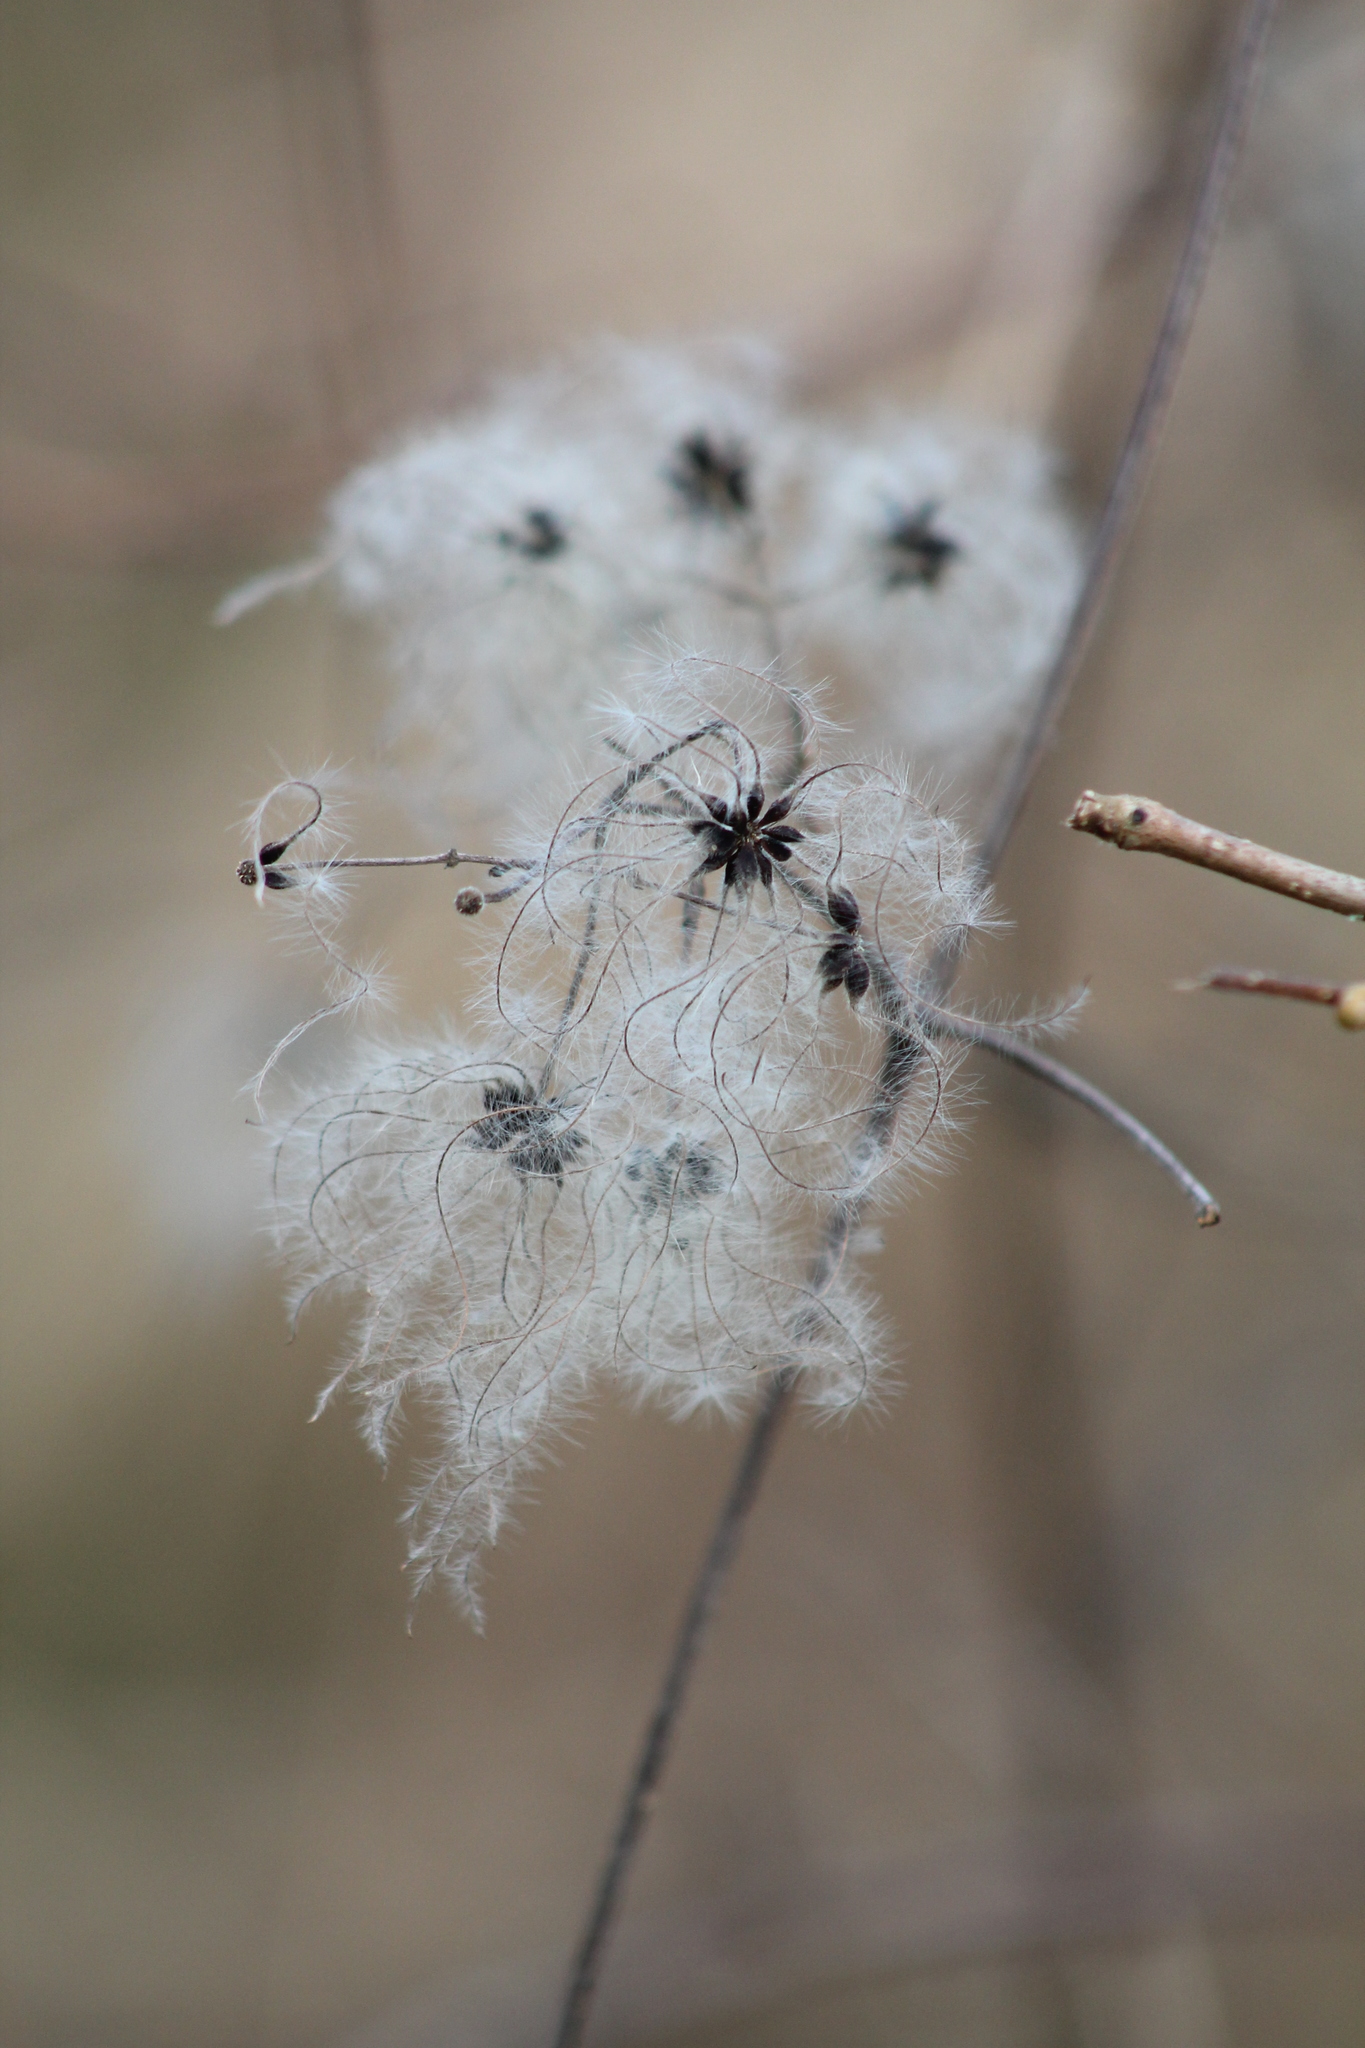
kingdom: Plantae
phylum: Tracheophyta
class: Magnoliopsida
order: Ranunculales
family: Ranunculaceae
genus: Clematis
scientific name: Clematis vitalba
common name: Evergreen clematis
